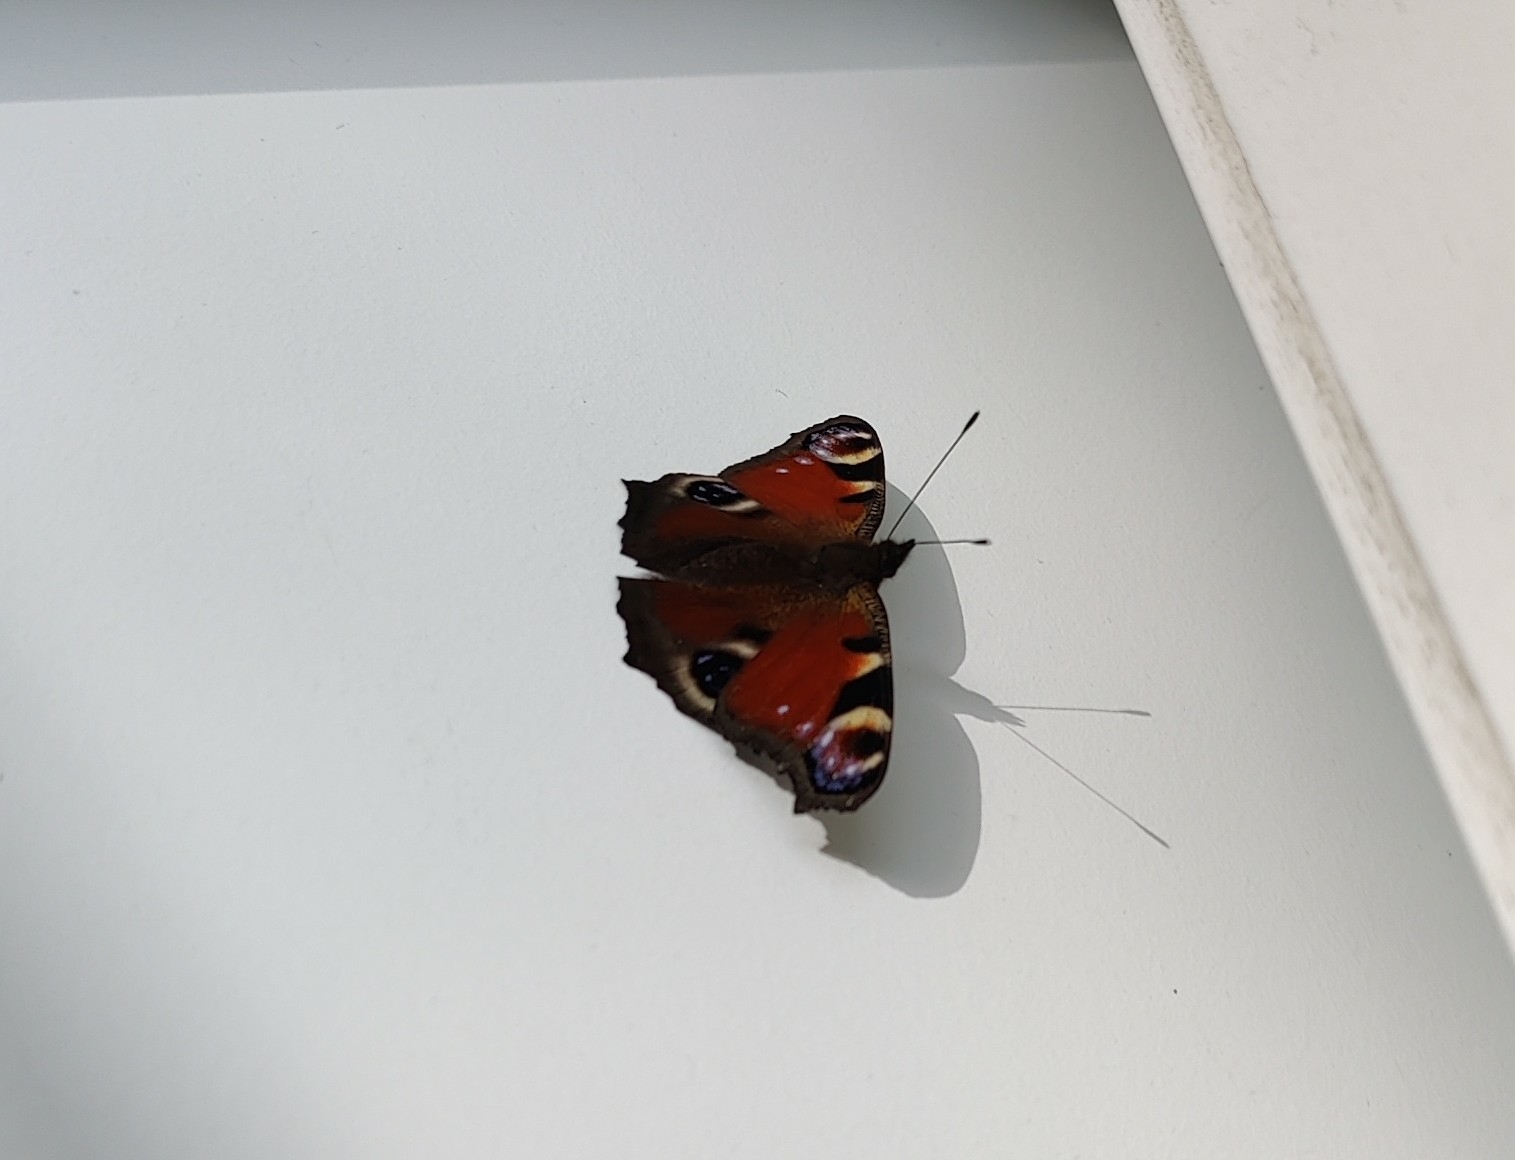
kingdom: Animalia
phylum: Arthropoda
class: Insecta
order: Lepidoptera
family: Nymphalidae
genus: Aglais
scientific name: Aglais io
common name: Peacock
